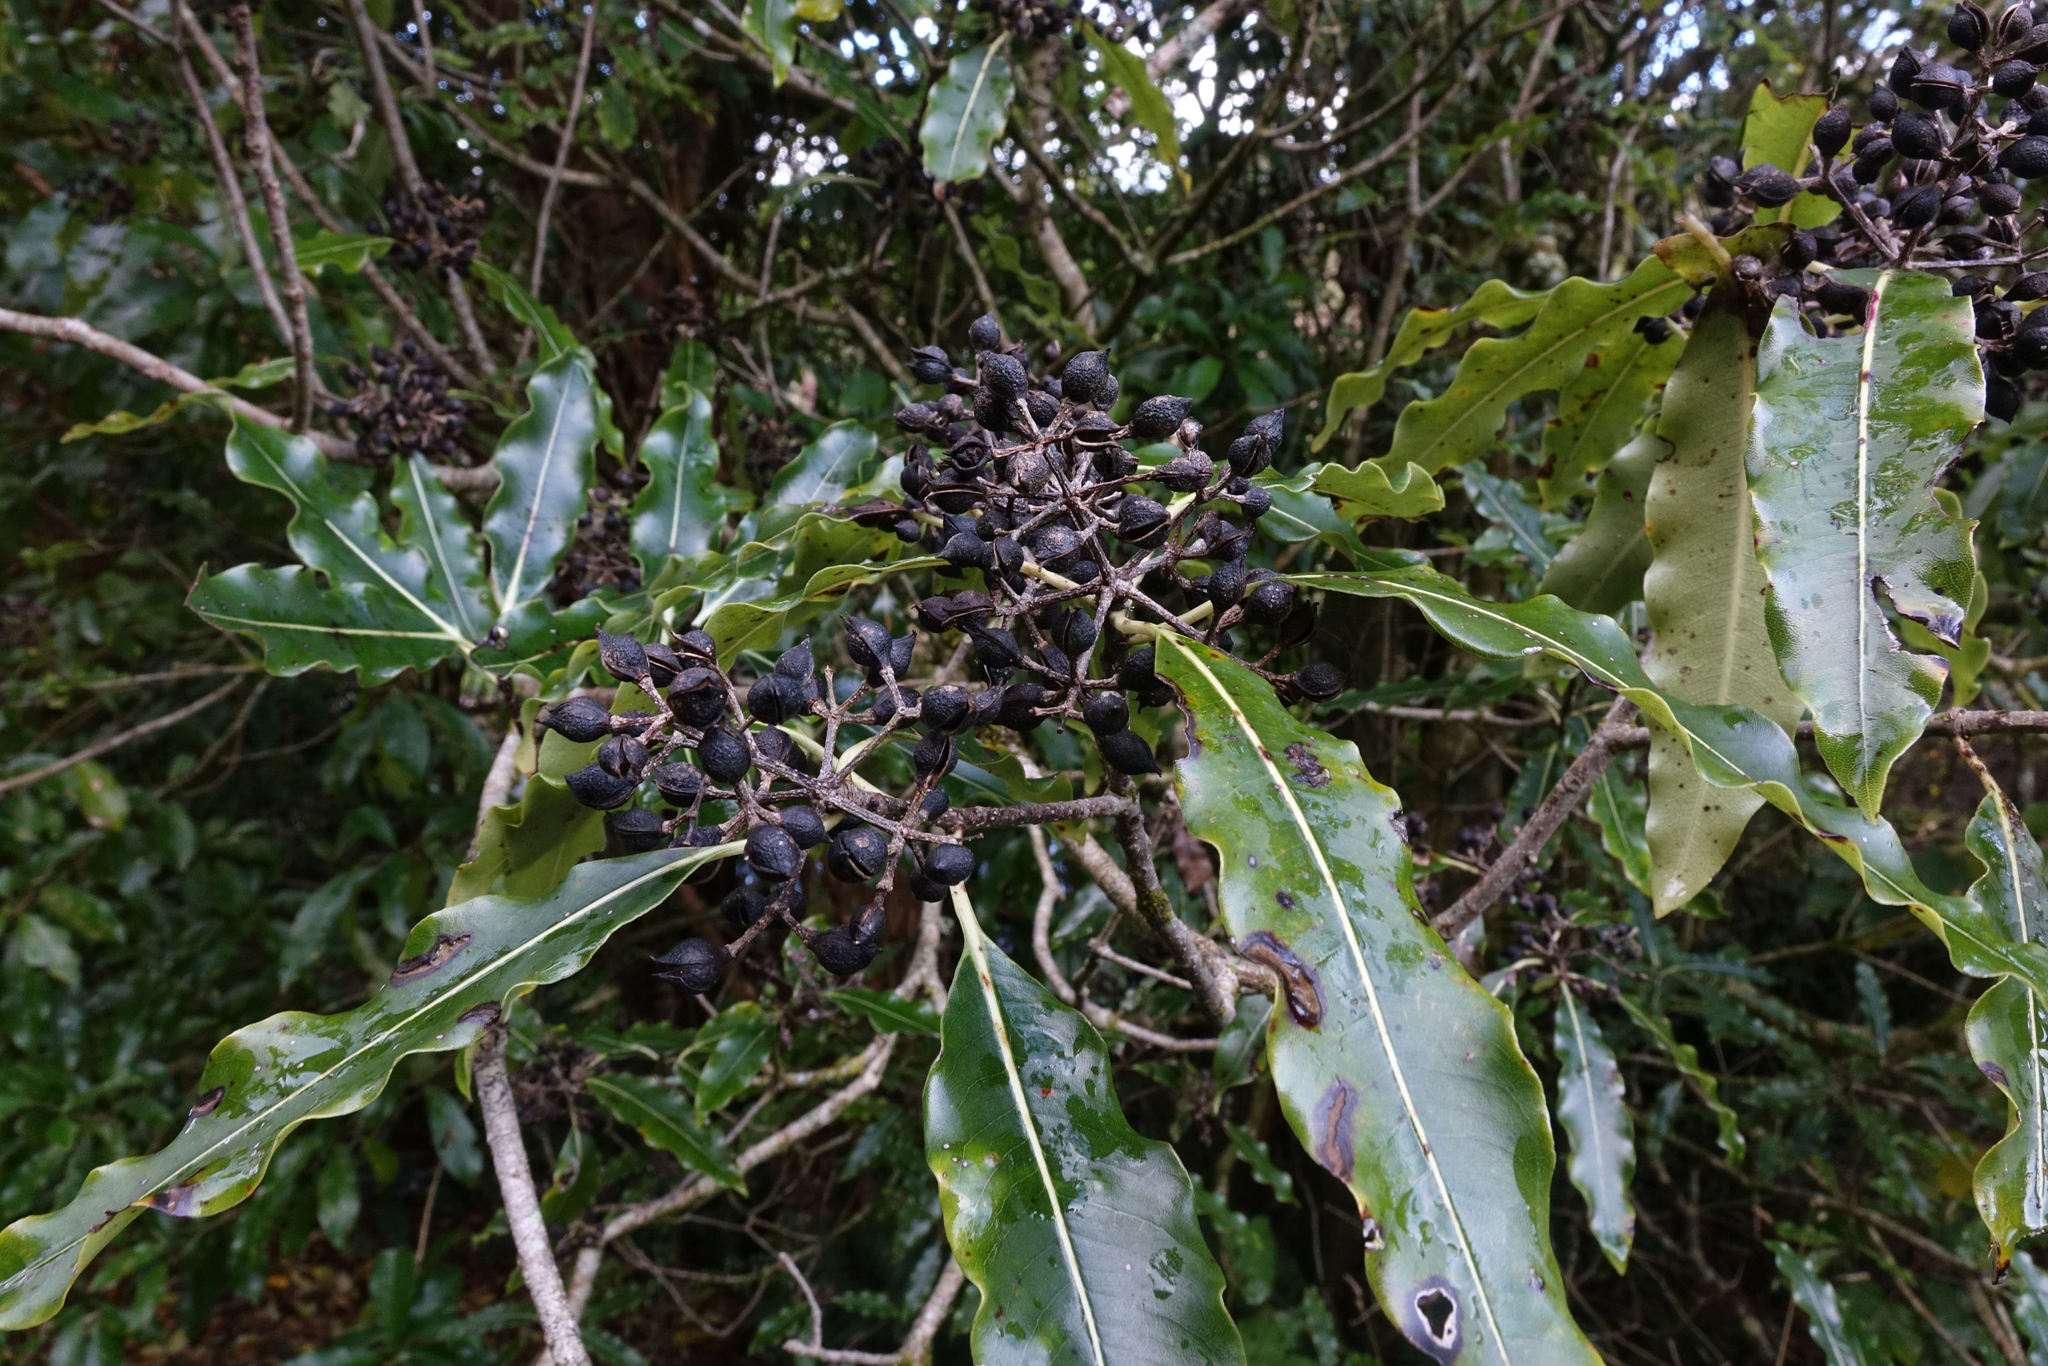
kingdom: Plantae
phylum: Tracheophyta
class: Magnoliopsida
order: Apiales
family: Pittosporaceae
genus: Pittosporum
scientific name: Pittosporum eugenioides
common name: Lemonwood
